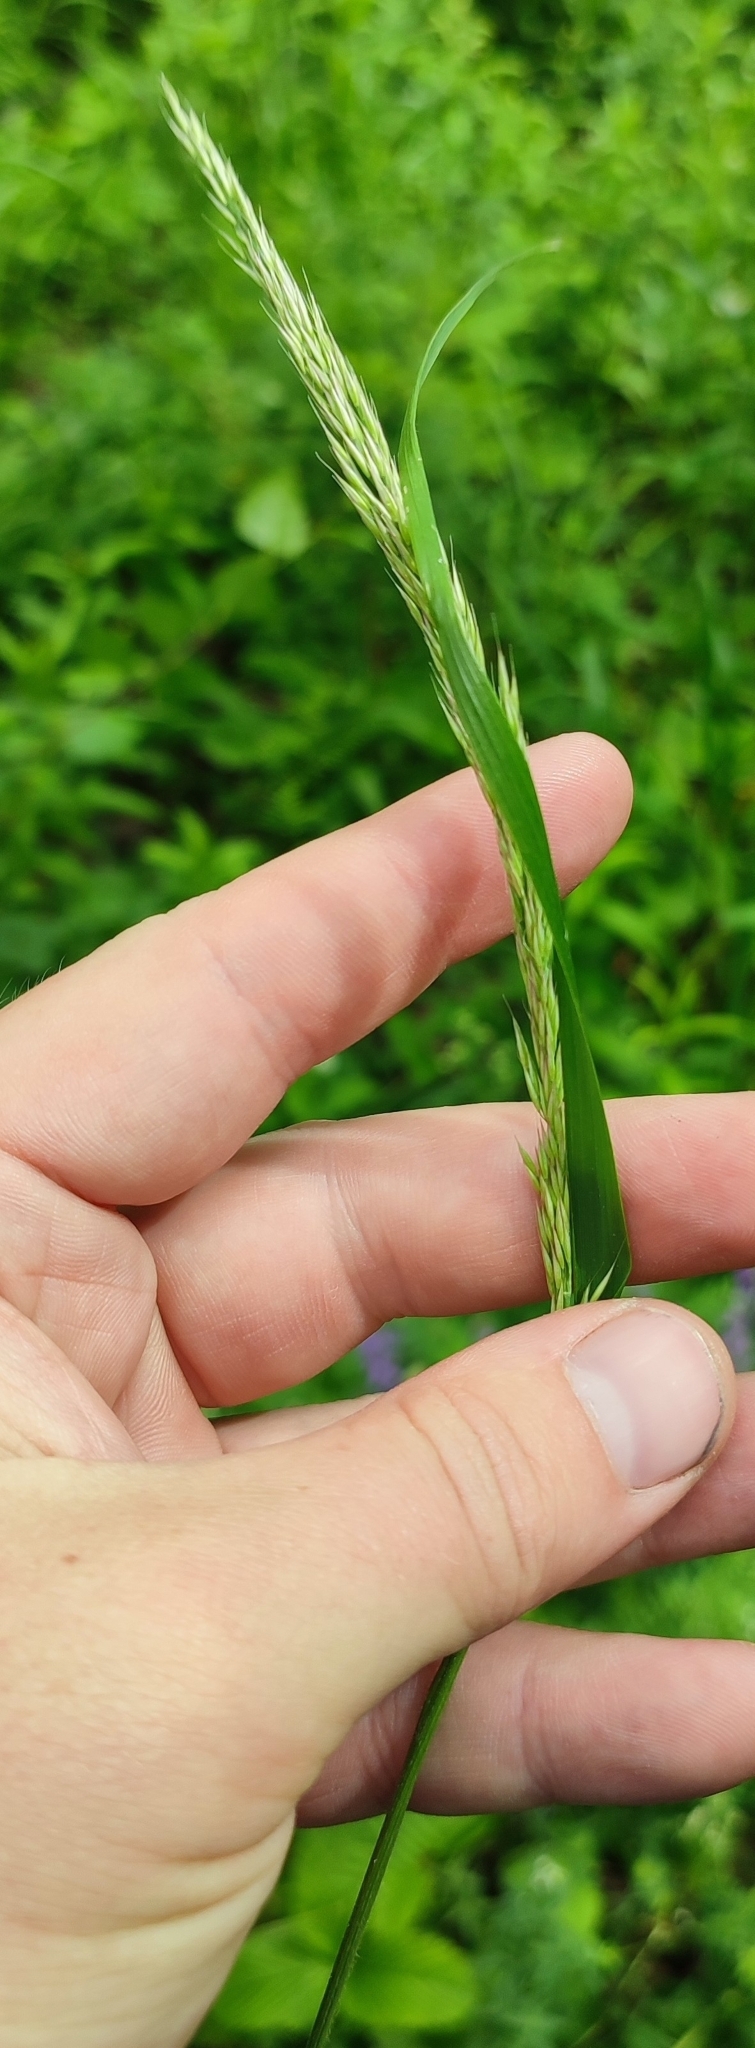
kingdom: Plantae
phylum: Tracheophyta
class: Liliopsida
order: Poales
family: Poaceae
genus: Calamagrostis
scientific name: Calamagrostis arundinacea
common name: Metskastik
